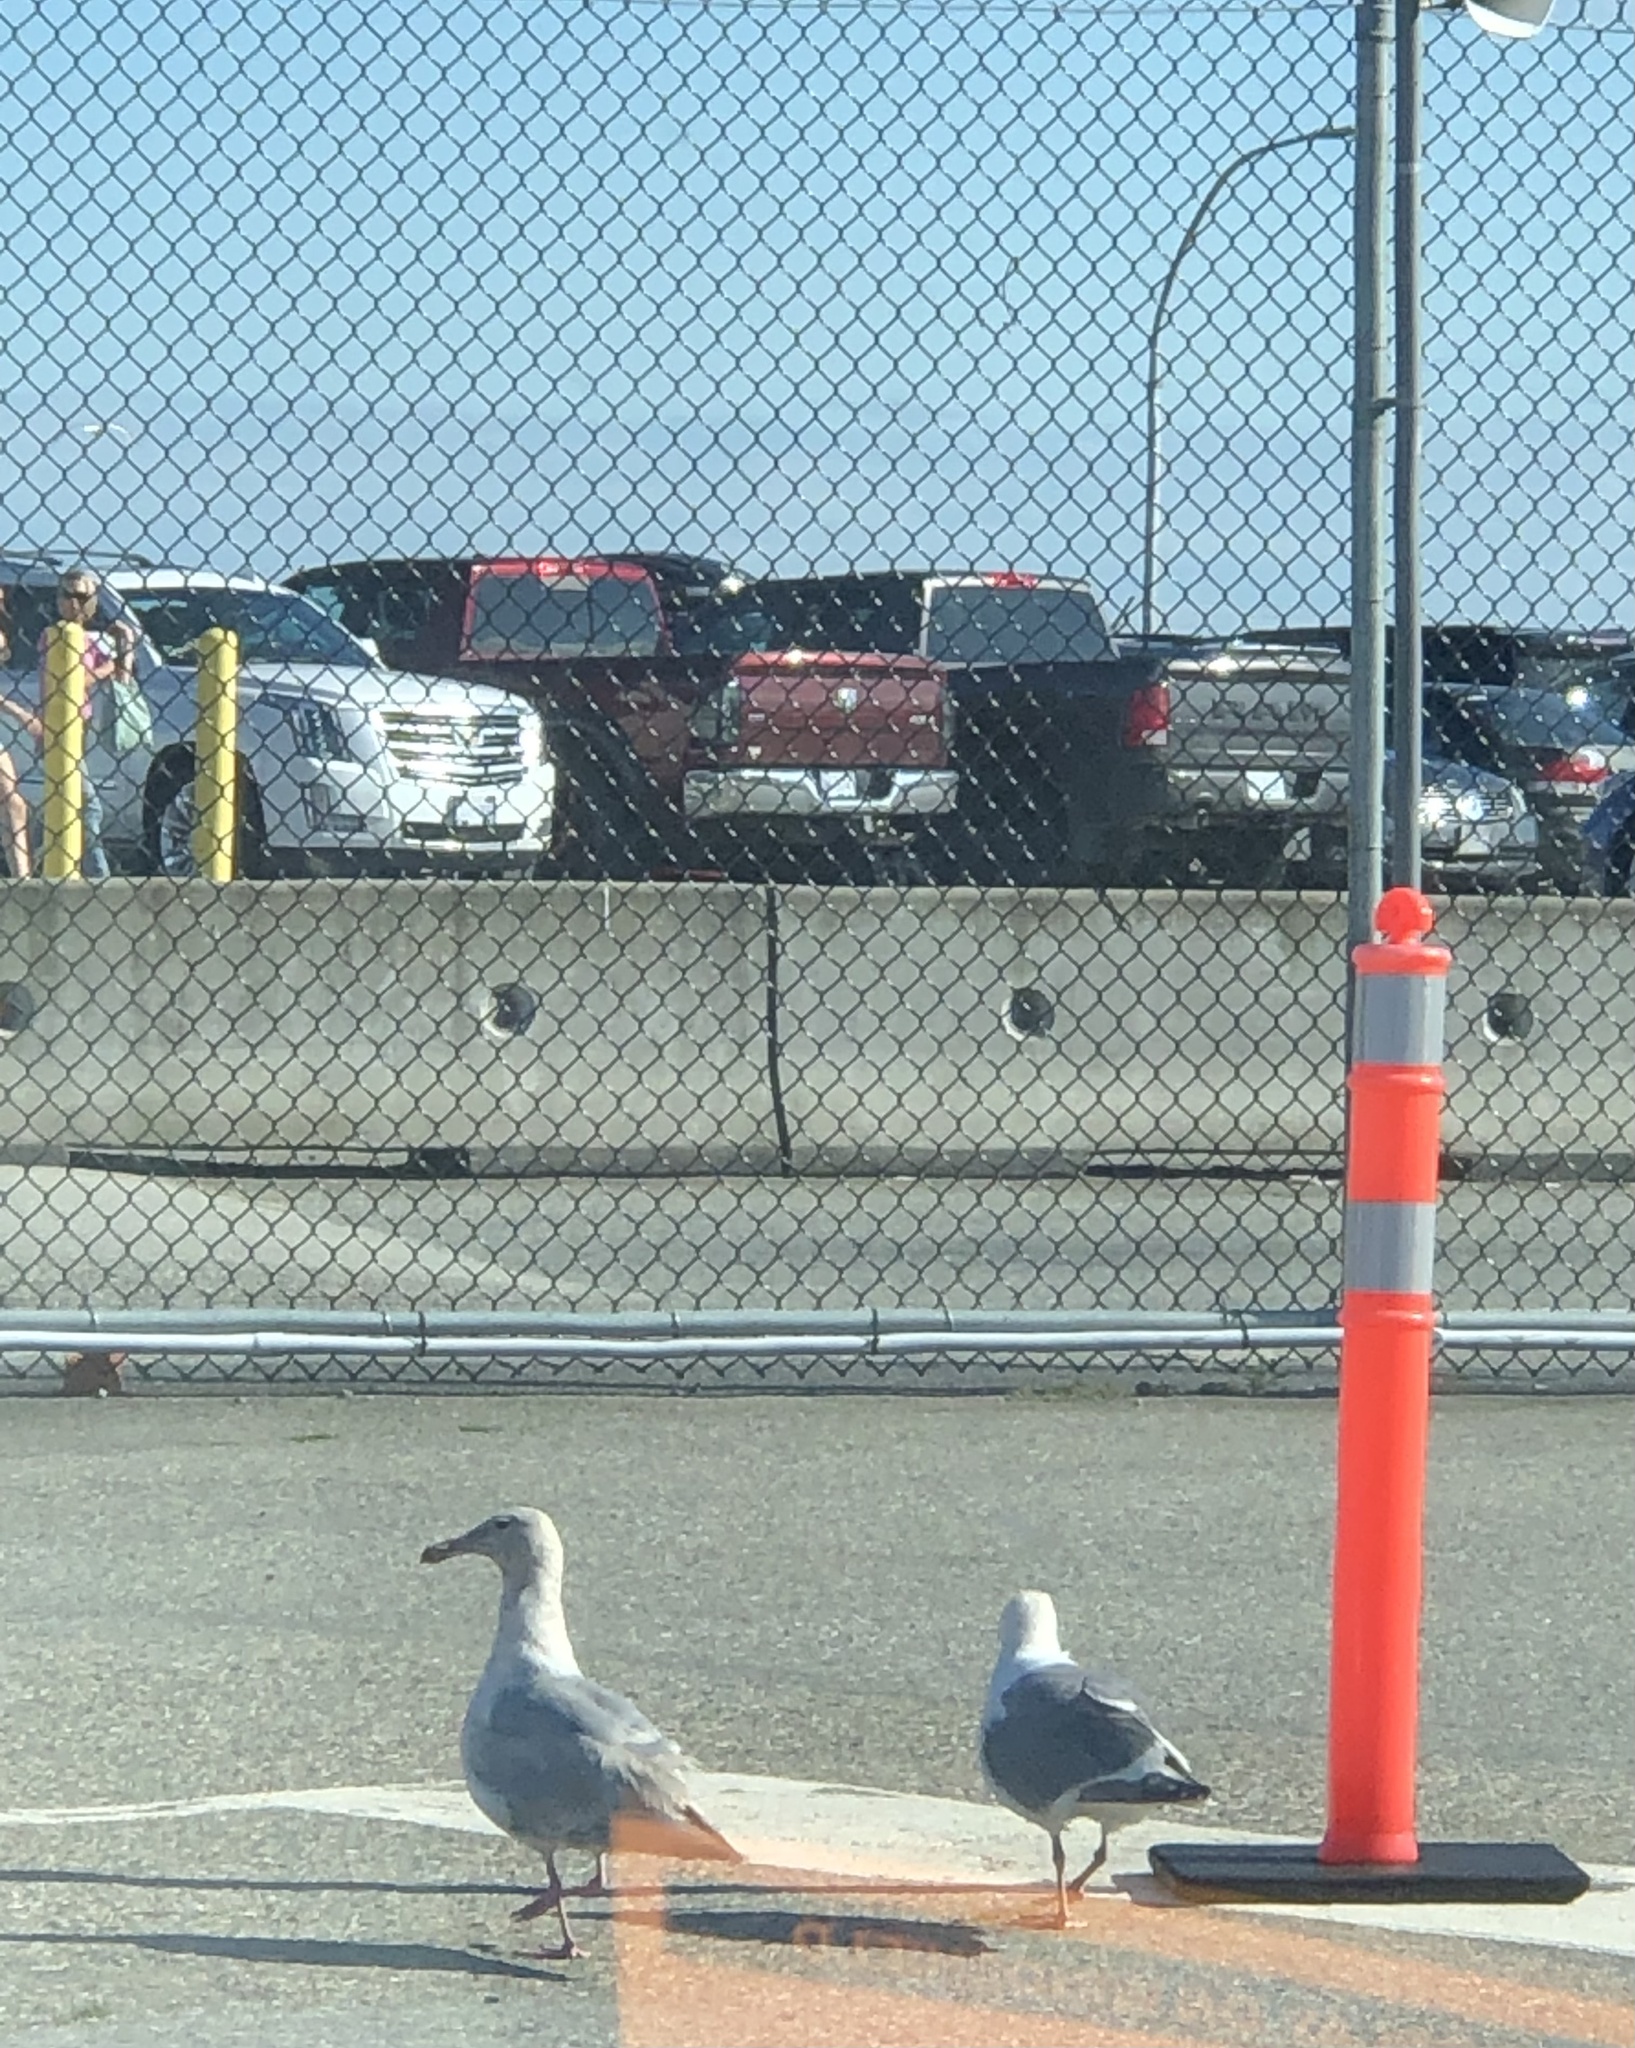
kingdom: Animalia
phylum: Chordata
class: Aves
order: Charadriiformes
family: Laridae
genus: Larus
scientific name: Larus glaucescens
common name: Glaucous-winged gull
